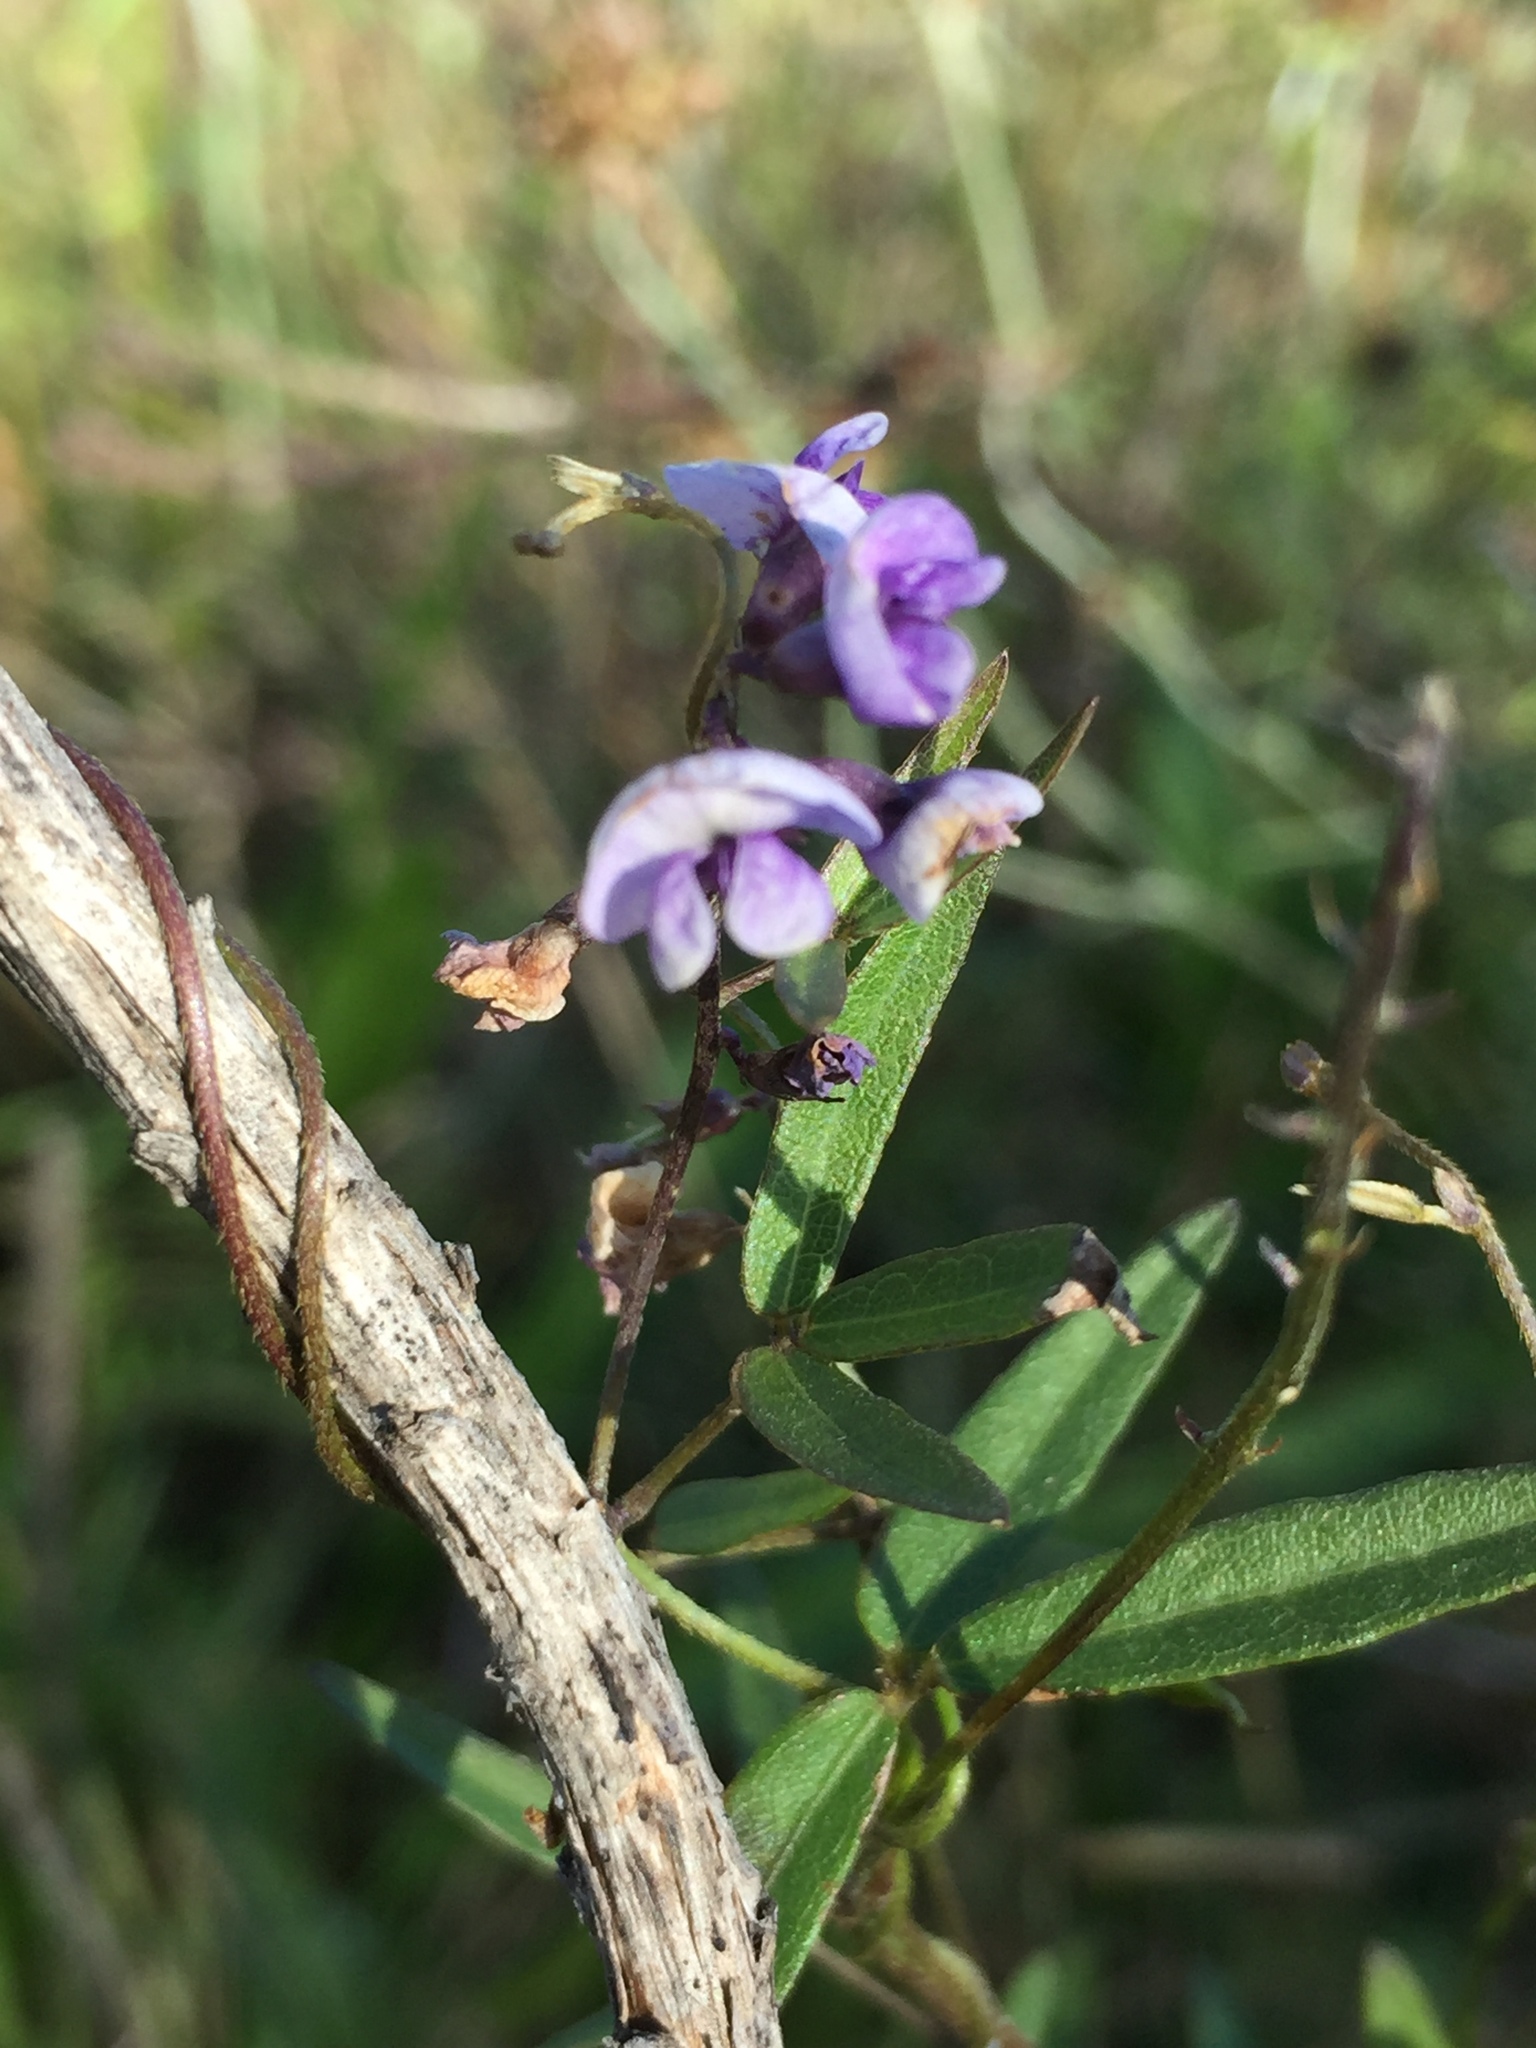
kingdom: Plantae
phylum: Tracheophyta
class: Magnoliopsida
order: Fabales
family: Fabaceae
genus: Glycine
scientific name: Glycine clandestina
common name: Twining glycine
